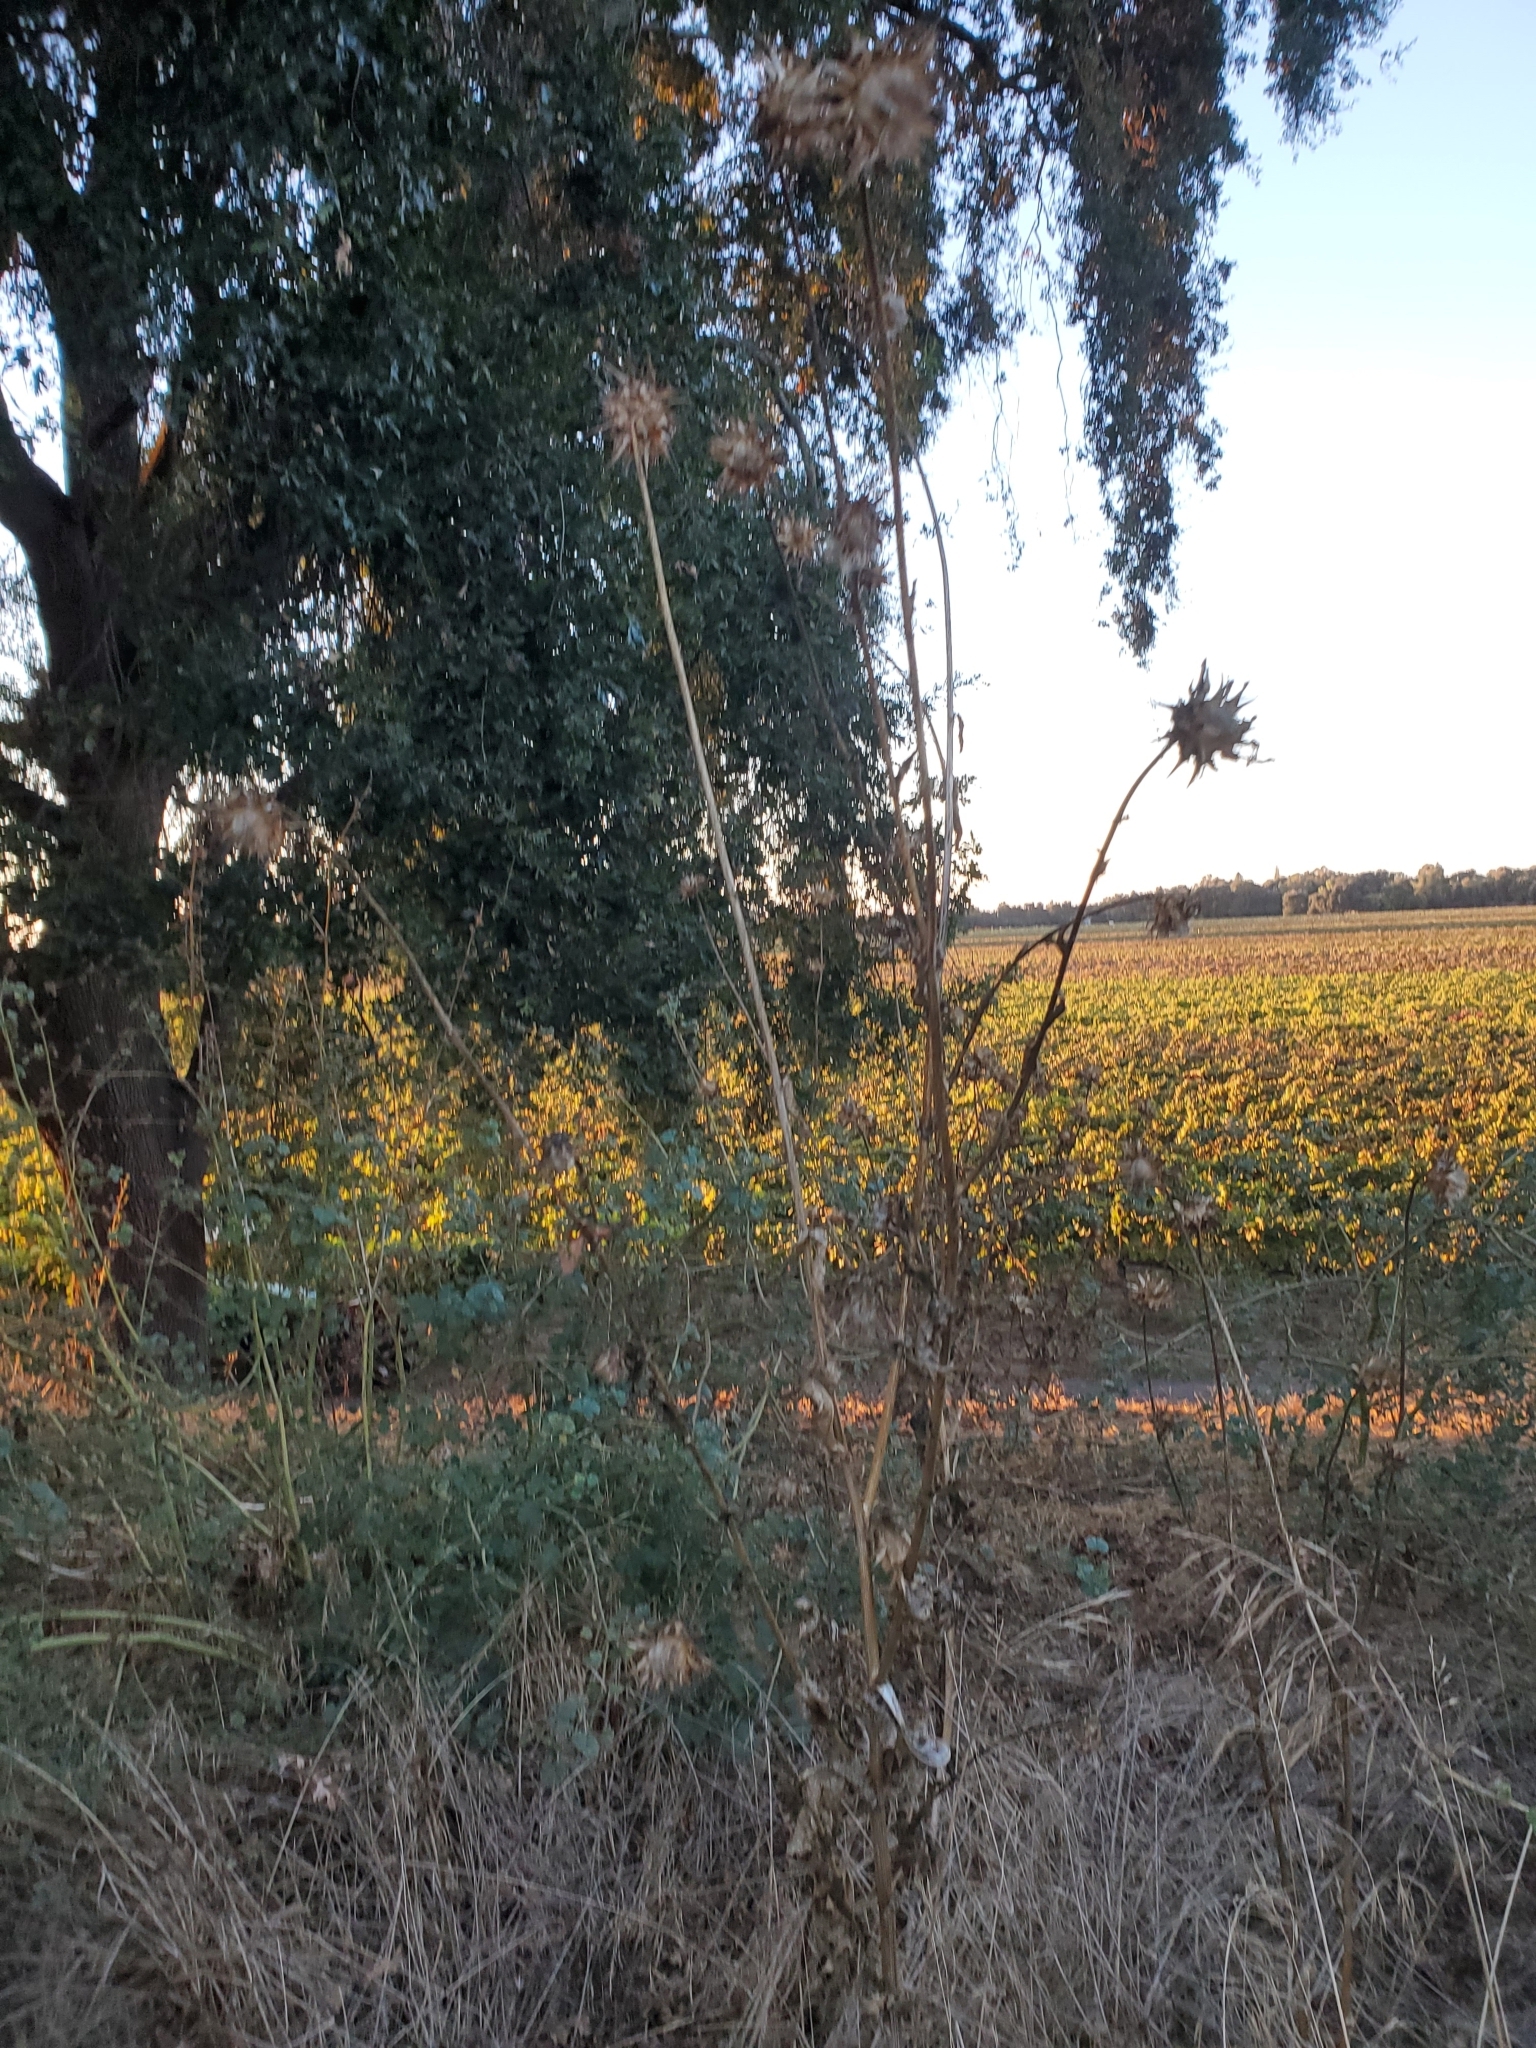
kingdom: Plantae
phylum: Tracheophyta
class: Magnoliopsida
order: Asterales
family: Asteraceae
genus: Silybum
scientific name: Silybum marianum
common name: Milk thistle
